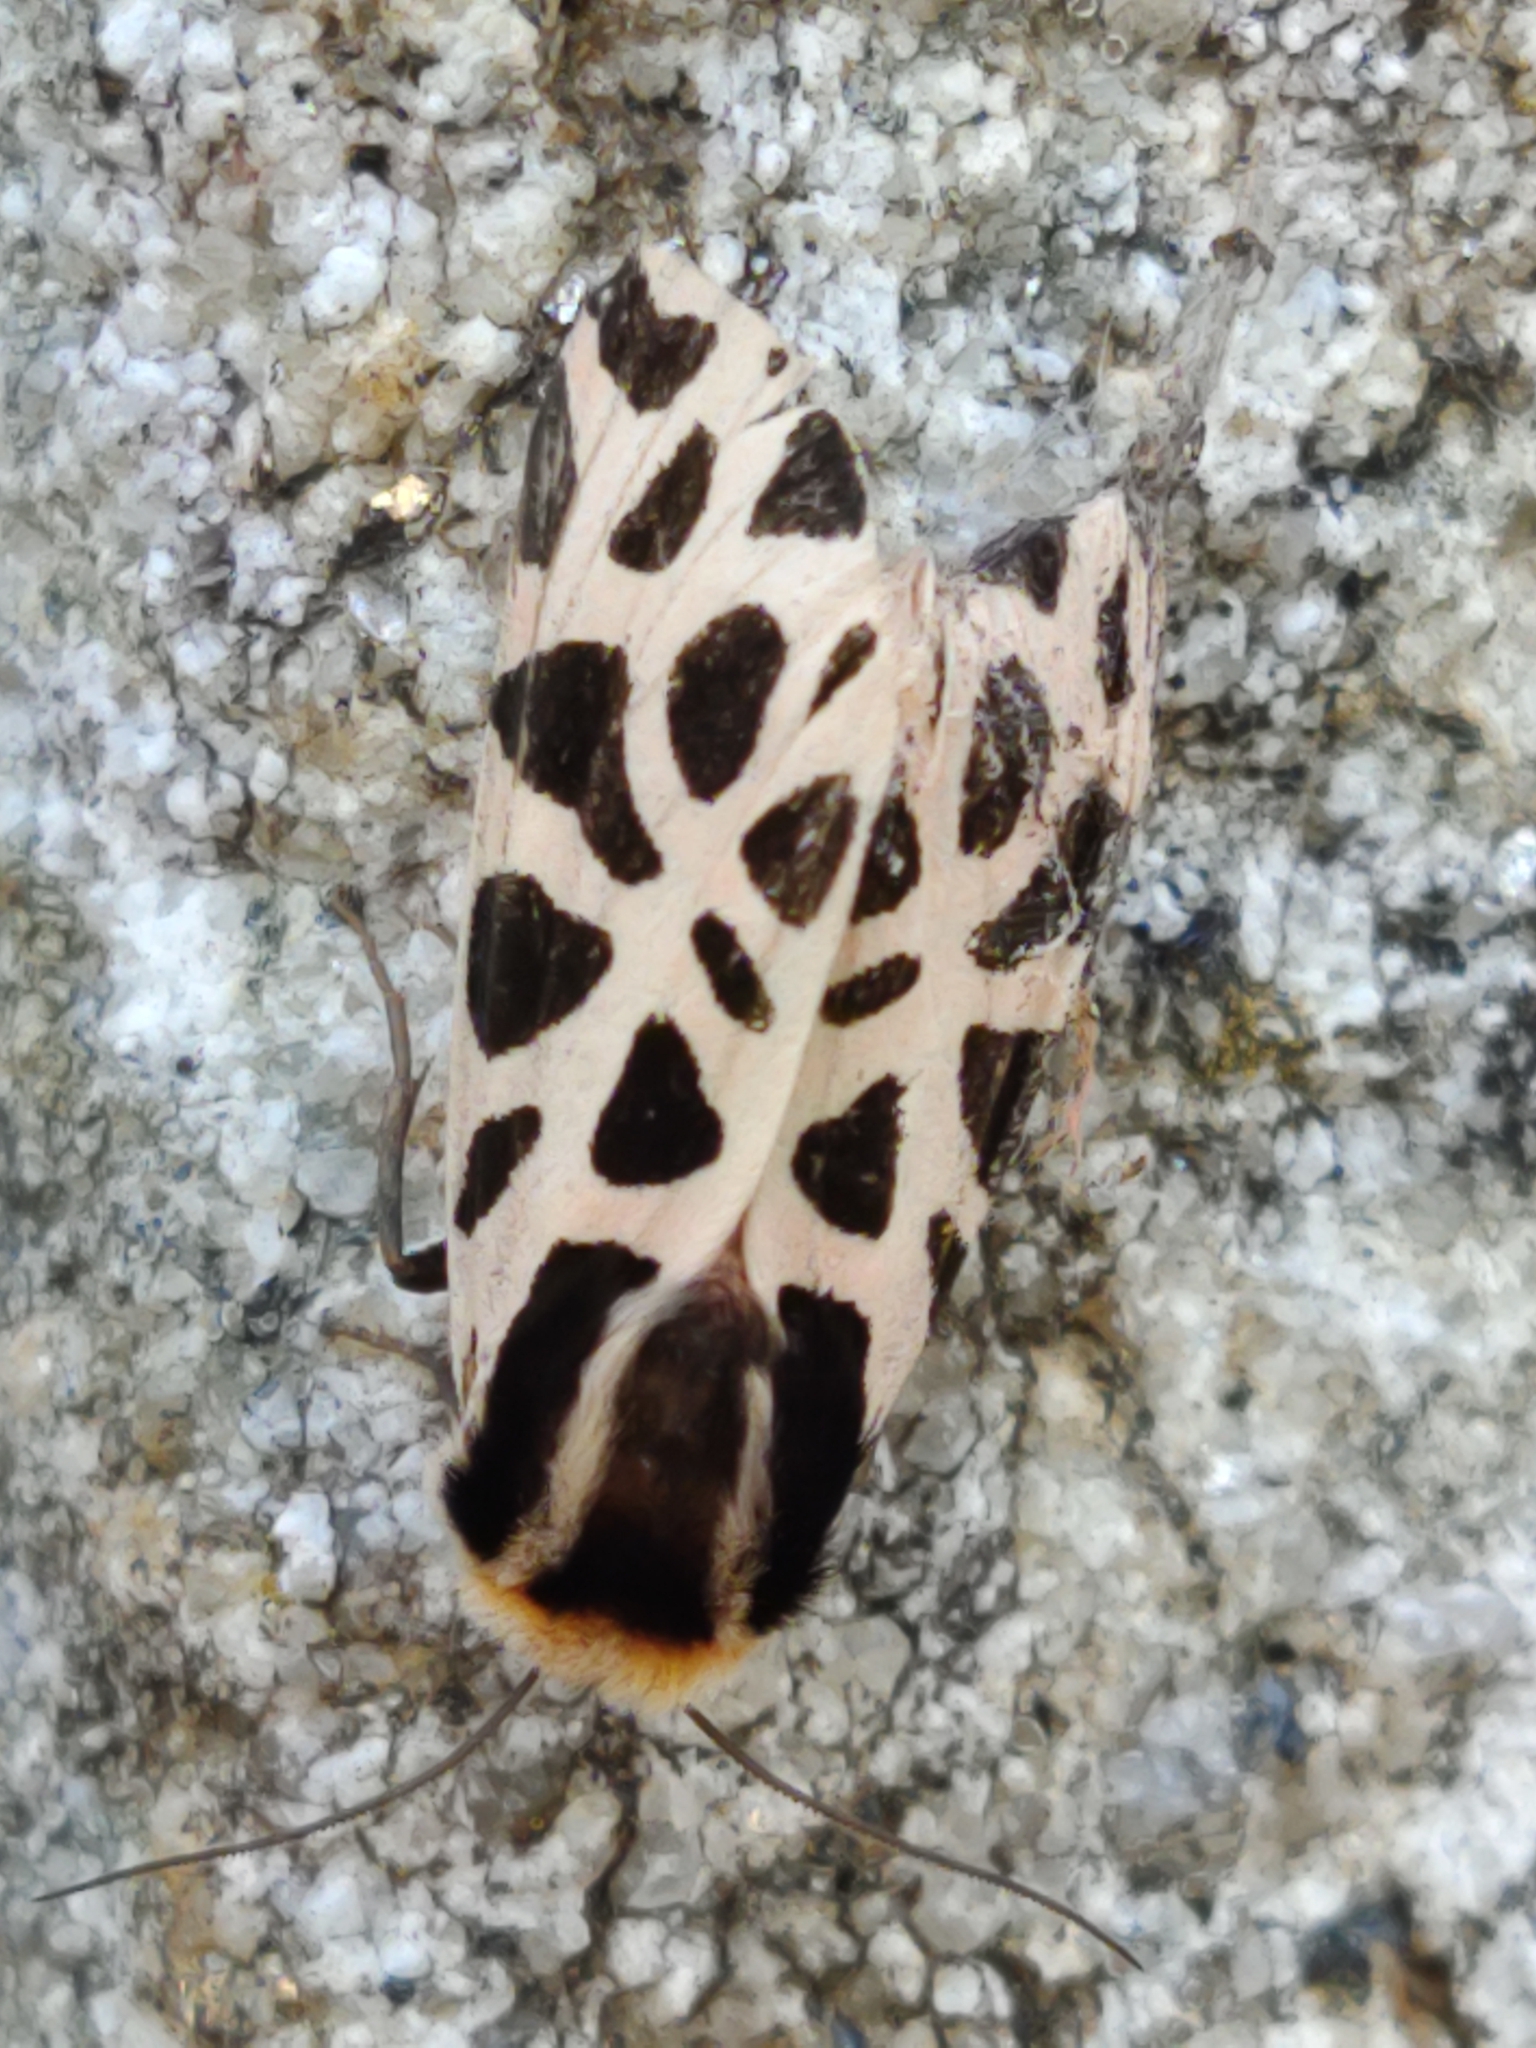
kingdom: Animalia
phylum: Arthropoda
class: Insecta
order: Lepidoptera
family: Erebidae
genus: Cymbalophora
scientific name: Cymbalophora pudica
